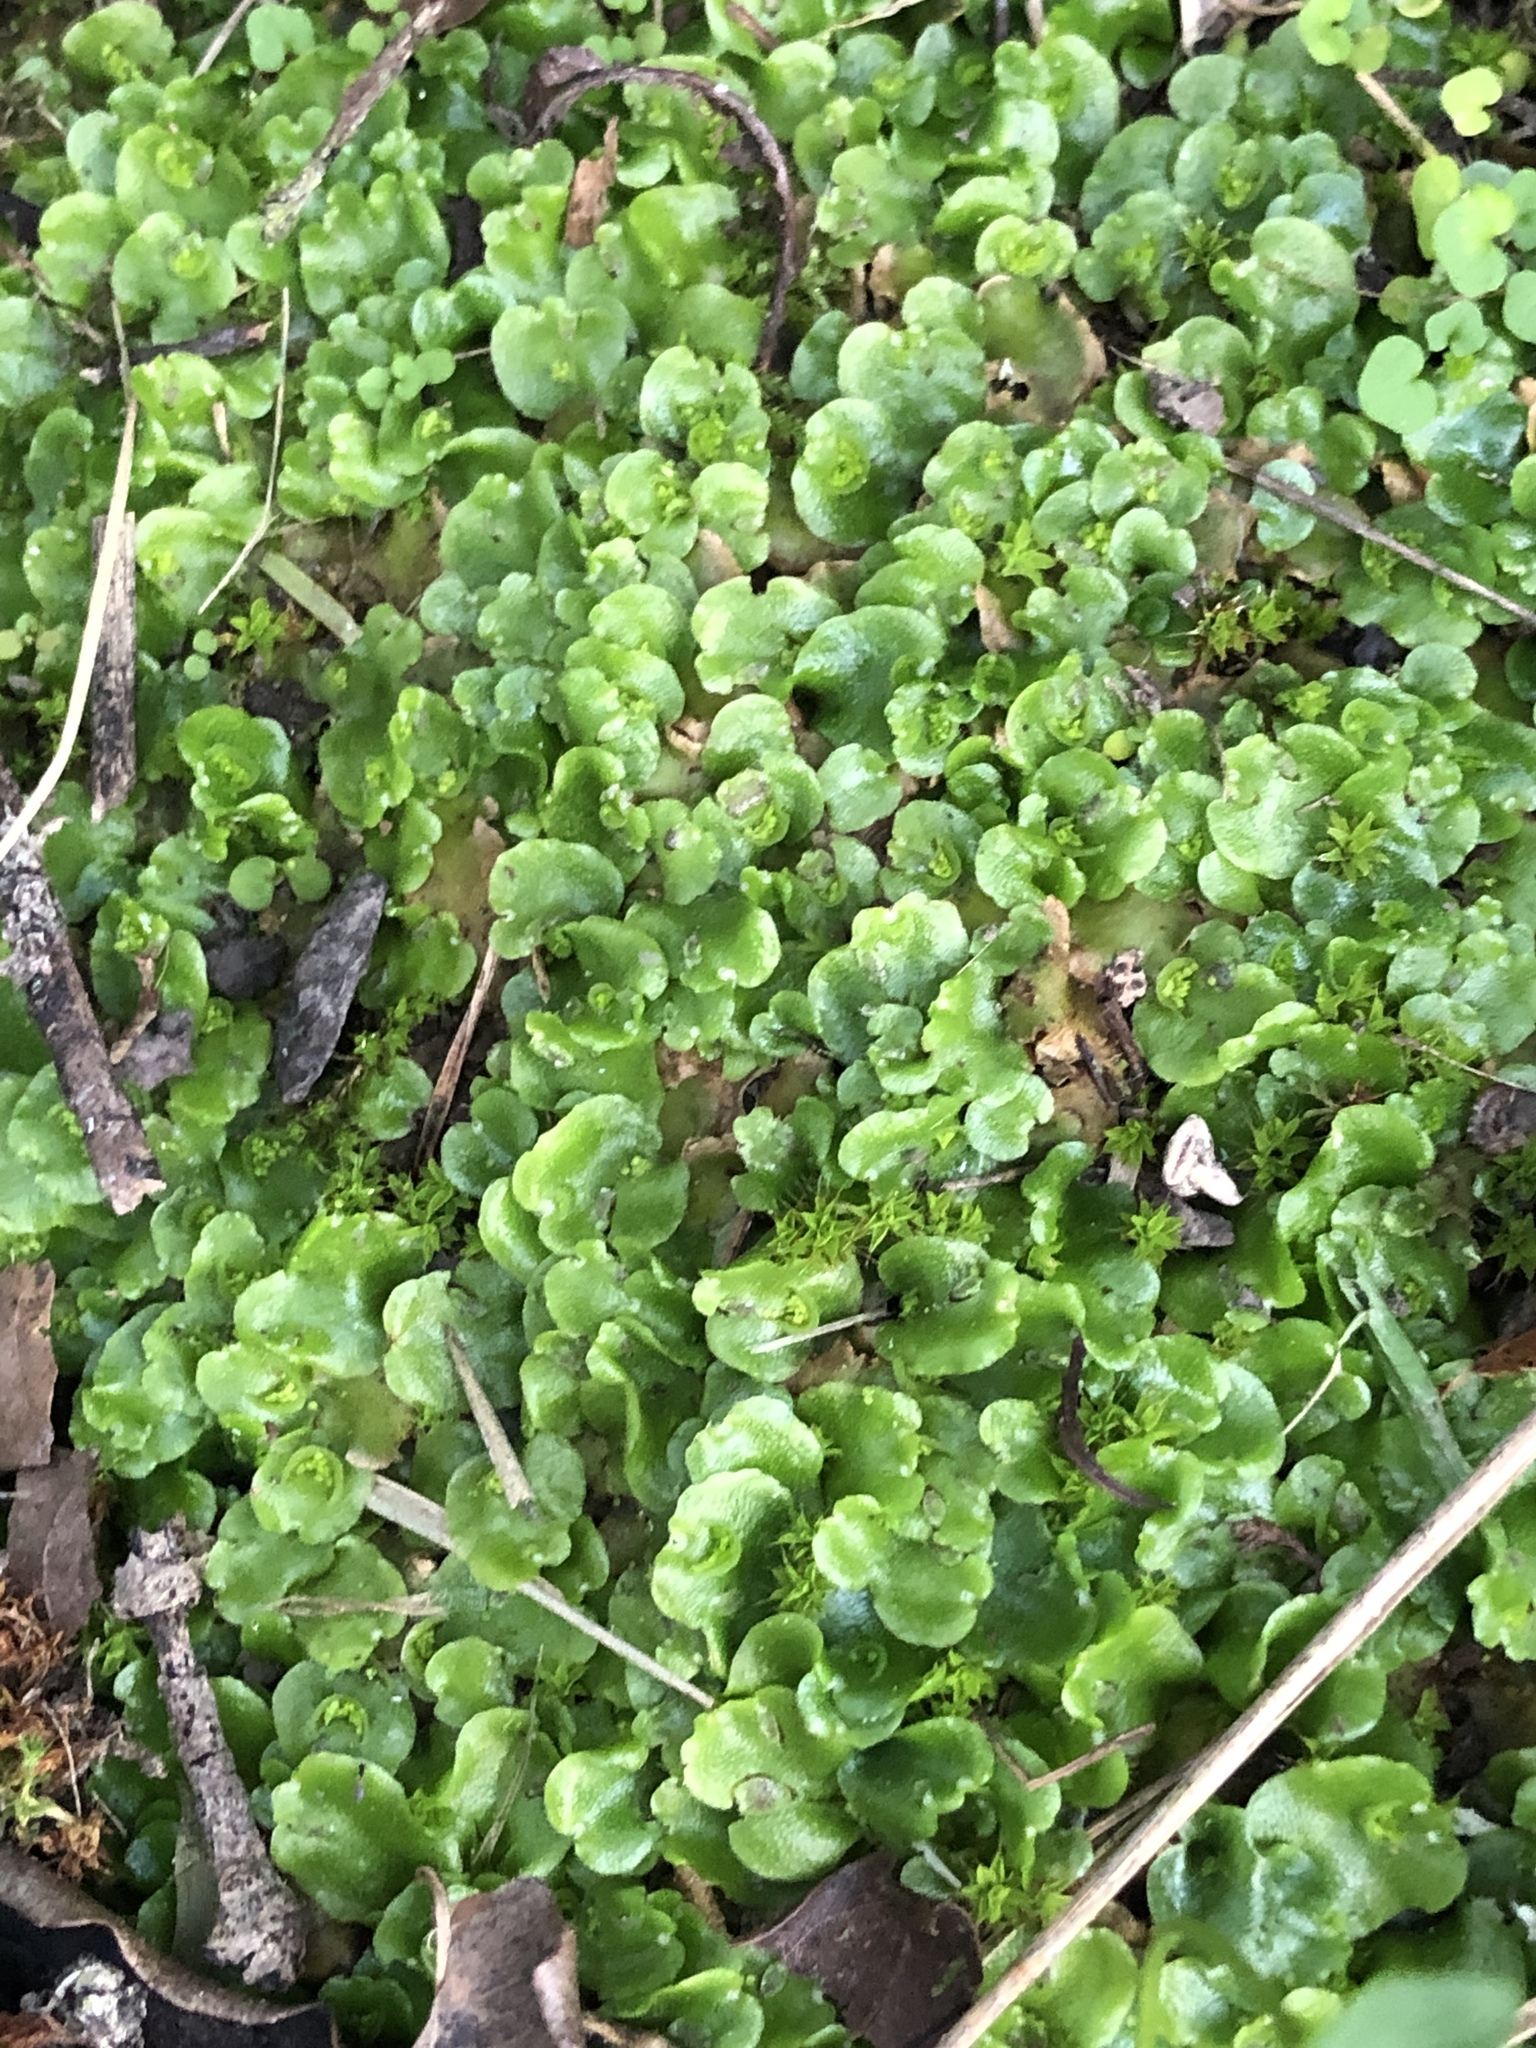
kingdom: Plantae
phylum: Marchantiophyta
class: Marchantiopsida
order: Lunulariales
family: Lunulariaceae
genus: Lunularia
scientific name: Lunularia cruciata
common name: Crescent-cup liverwort
